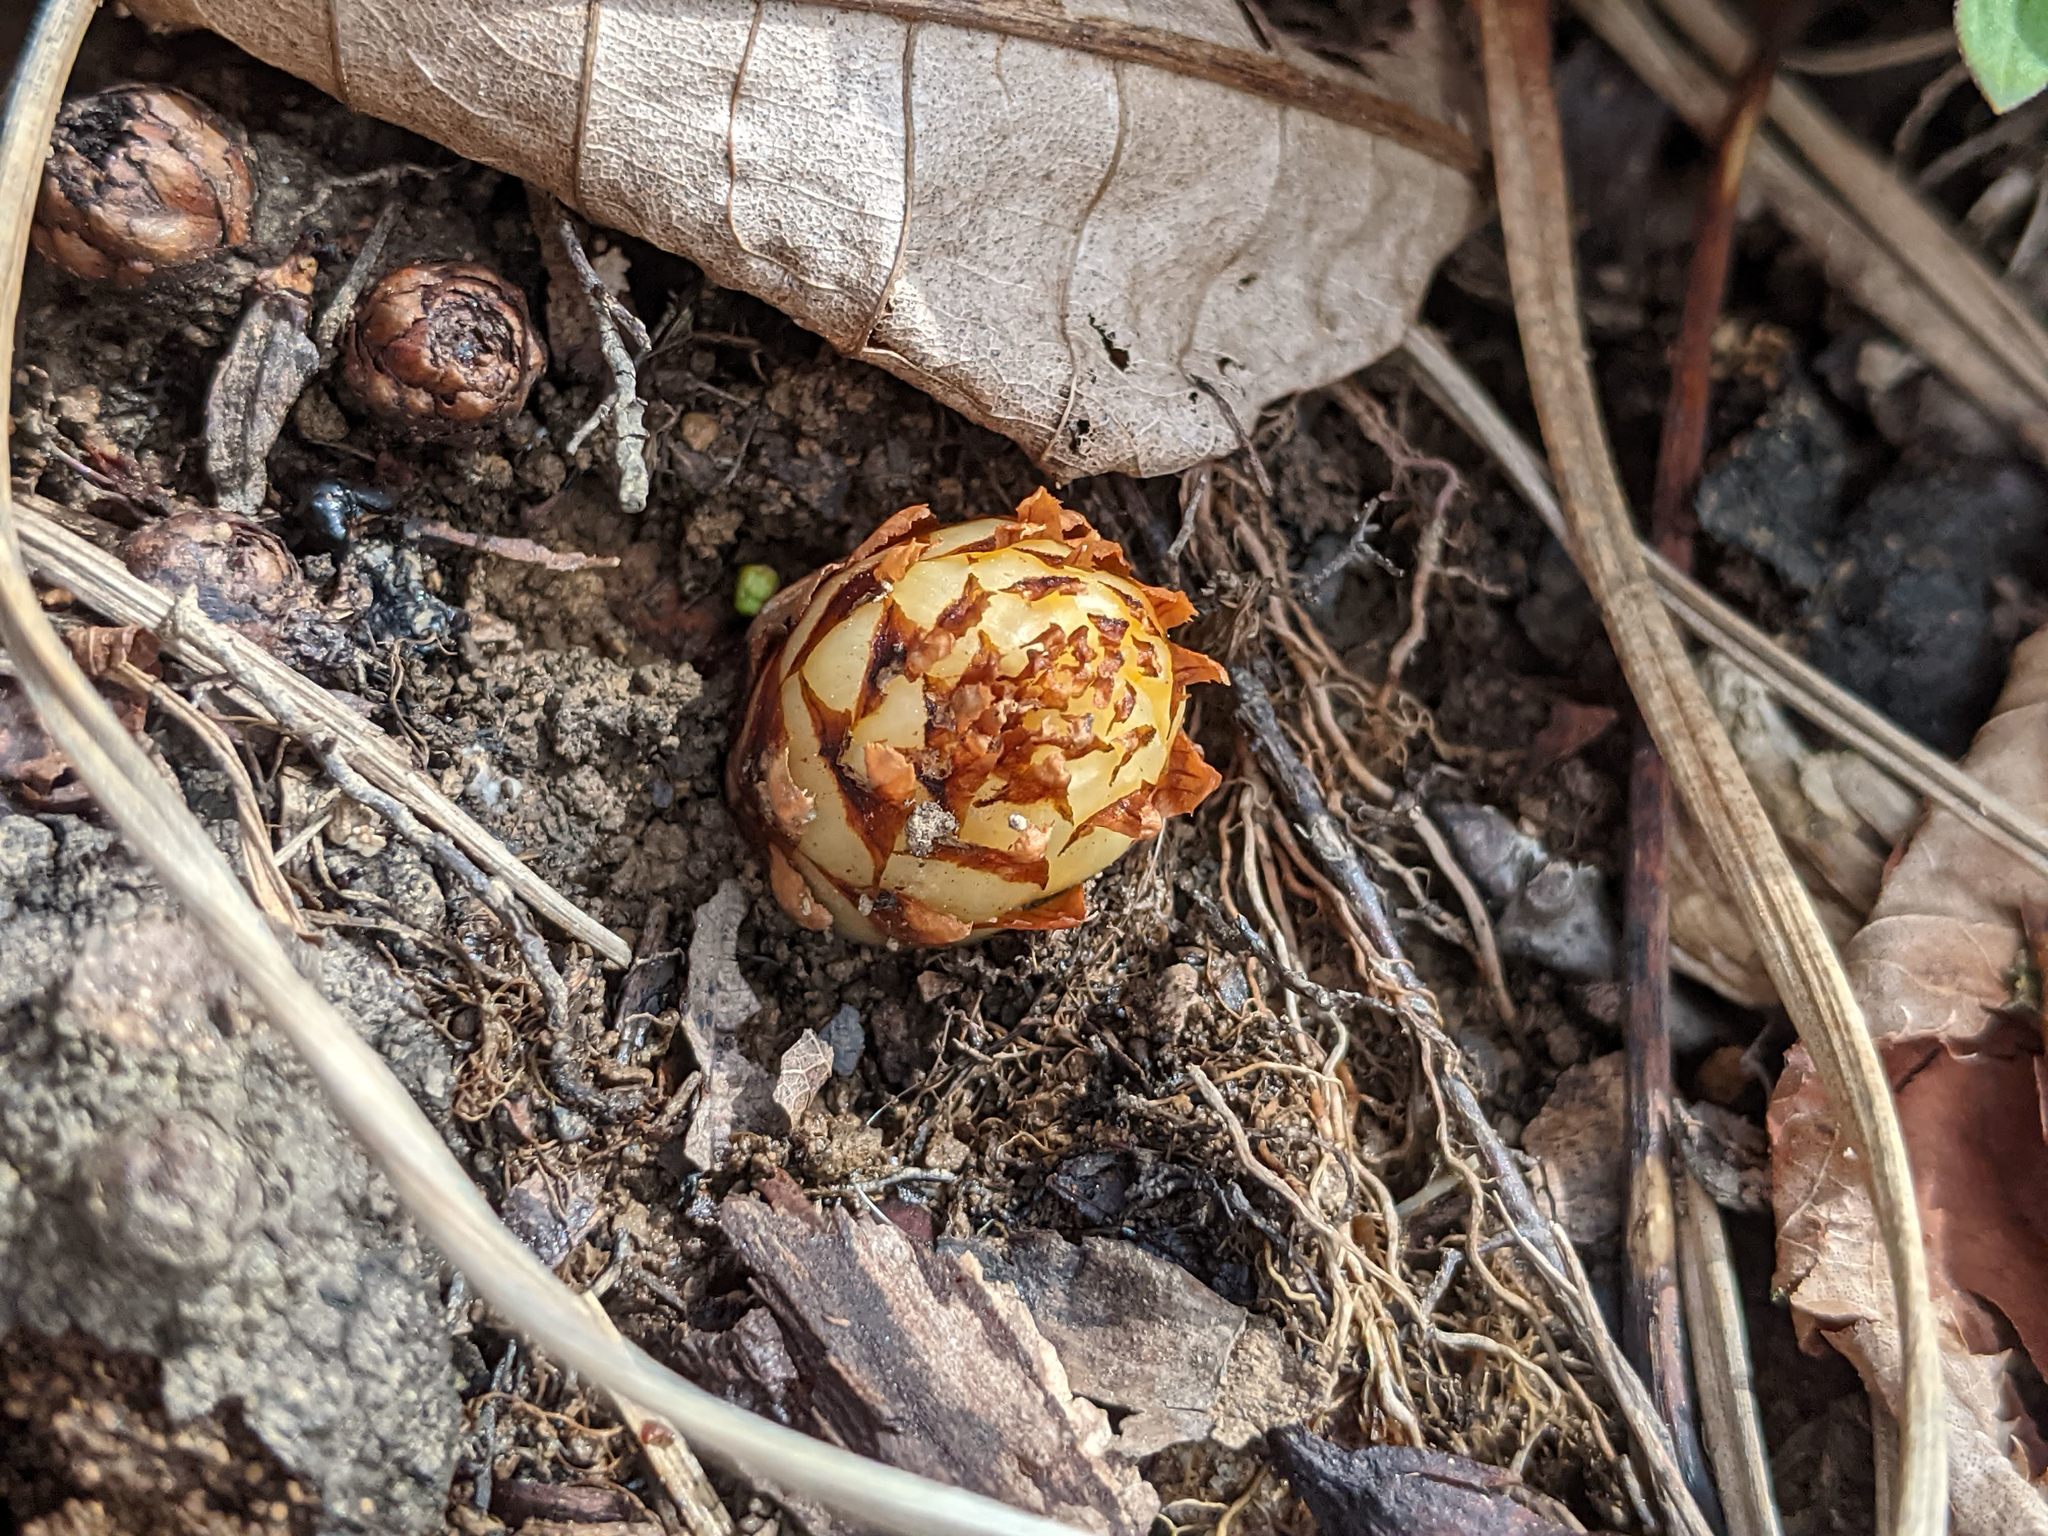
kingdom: Plantae
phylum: Tracheophyta
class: Magnoliopsida
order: Lamiales
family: Orobanchaceae
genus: Conopholis
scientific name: Conopholis americana
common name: American cancer-root
